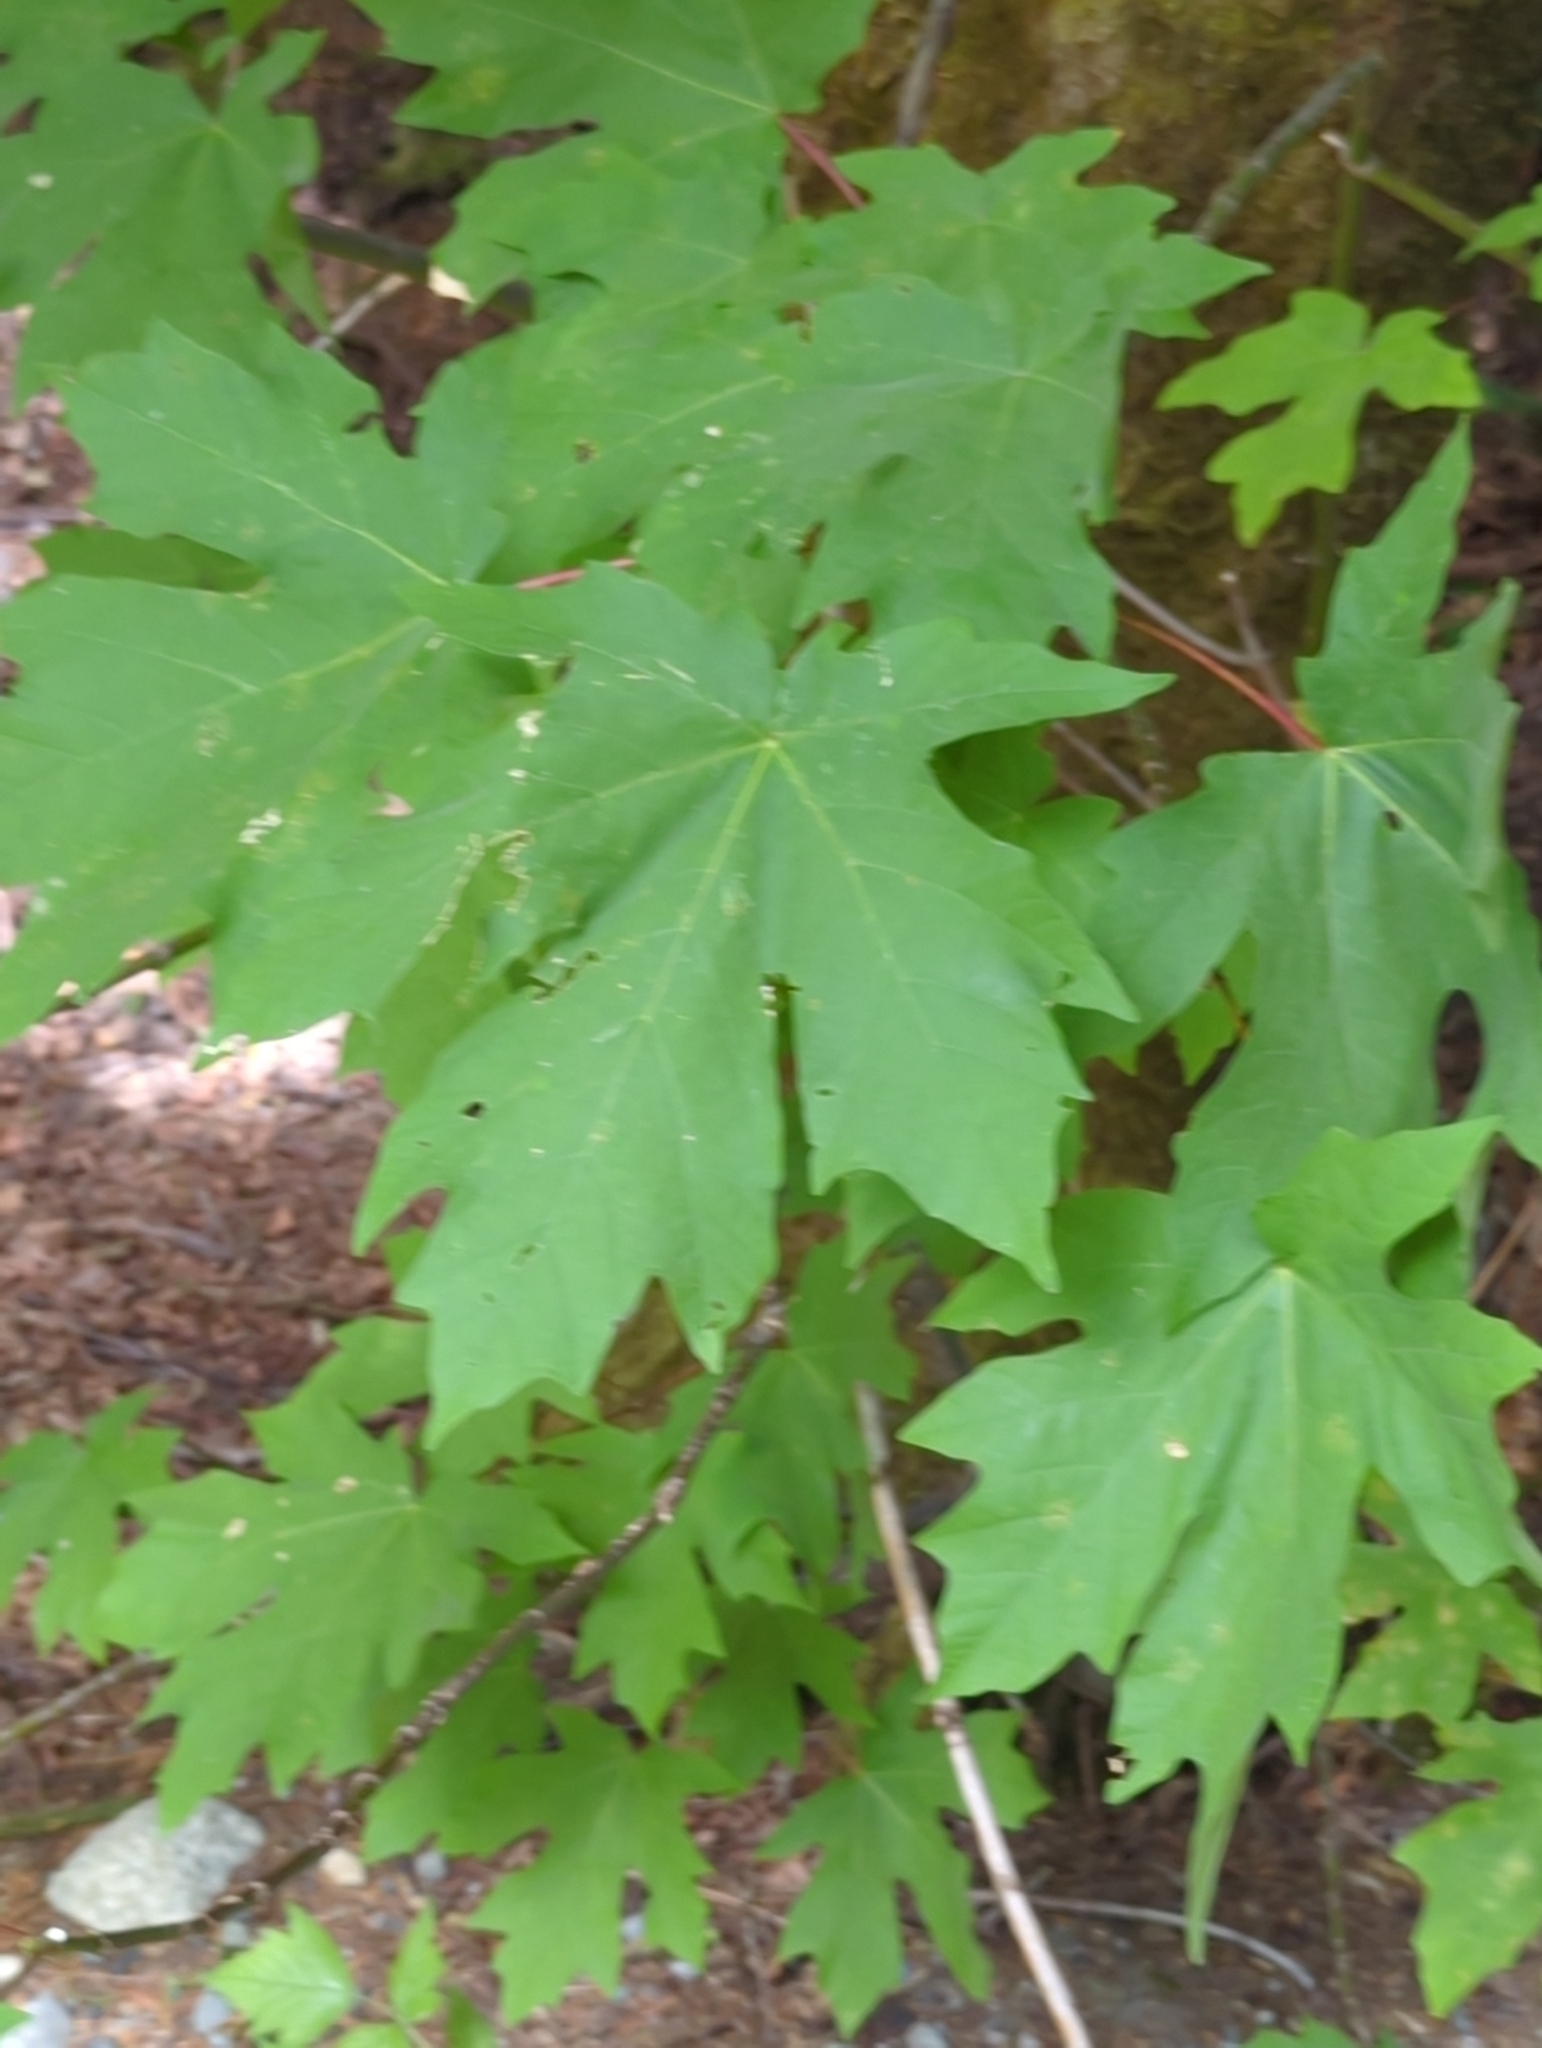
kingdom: Plantae
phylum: Tracheophyta
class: Magnoliopsida
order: Sapindales
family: Sapindaceae
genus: Acer
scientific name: Acer macrophyllum
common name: Oregon maple
